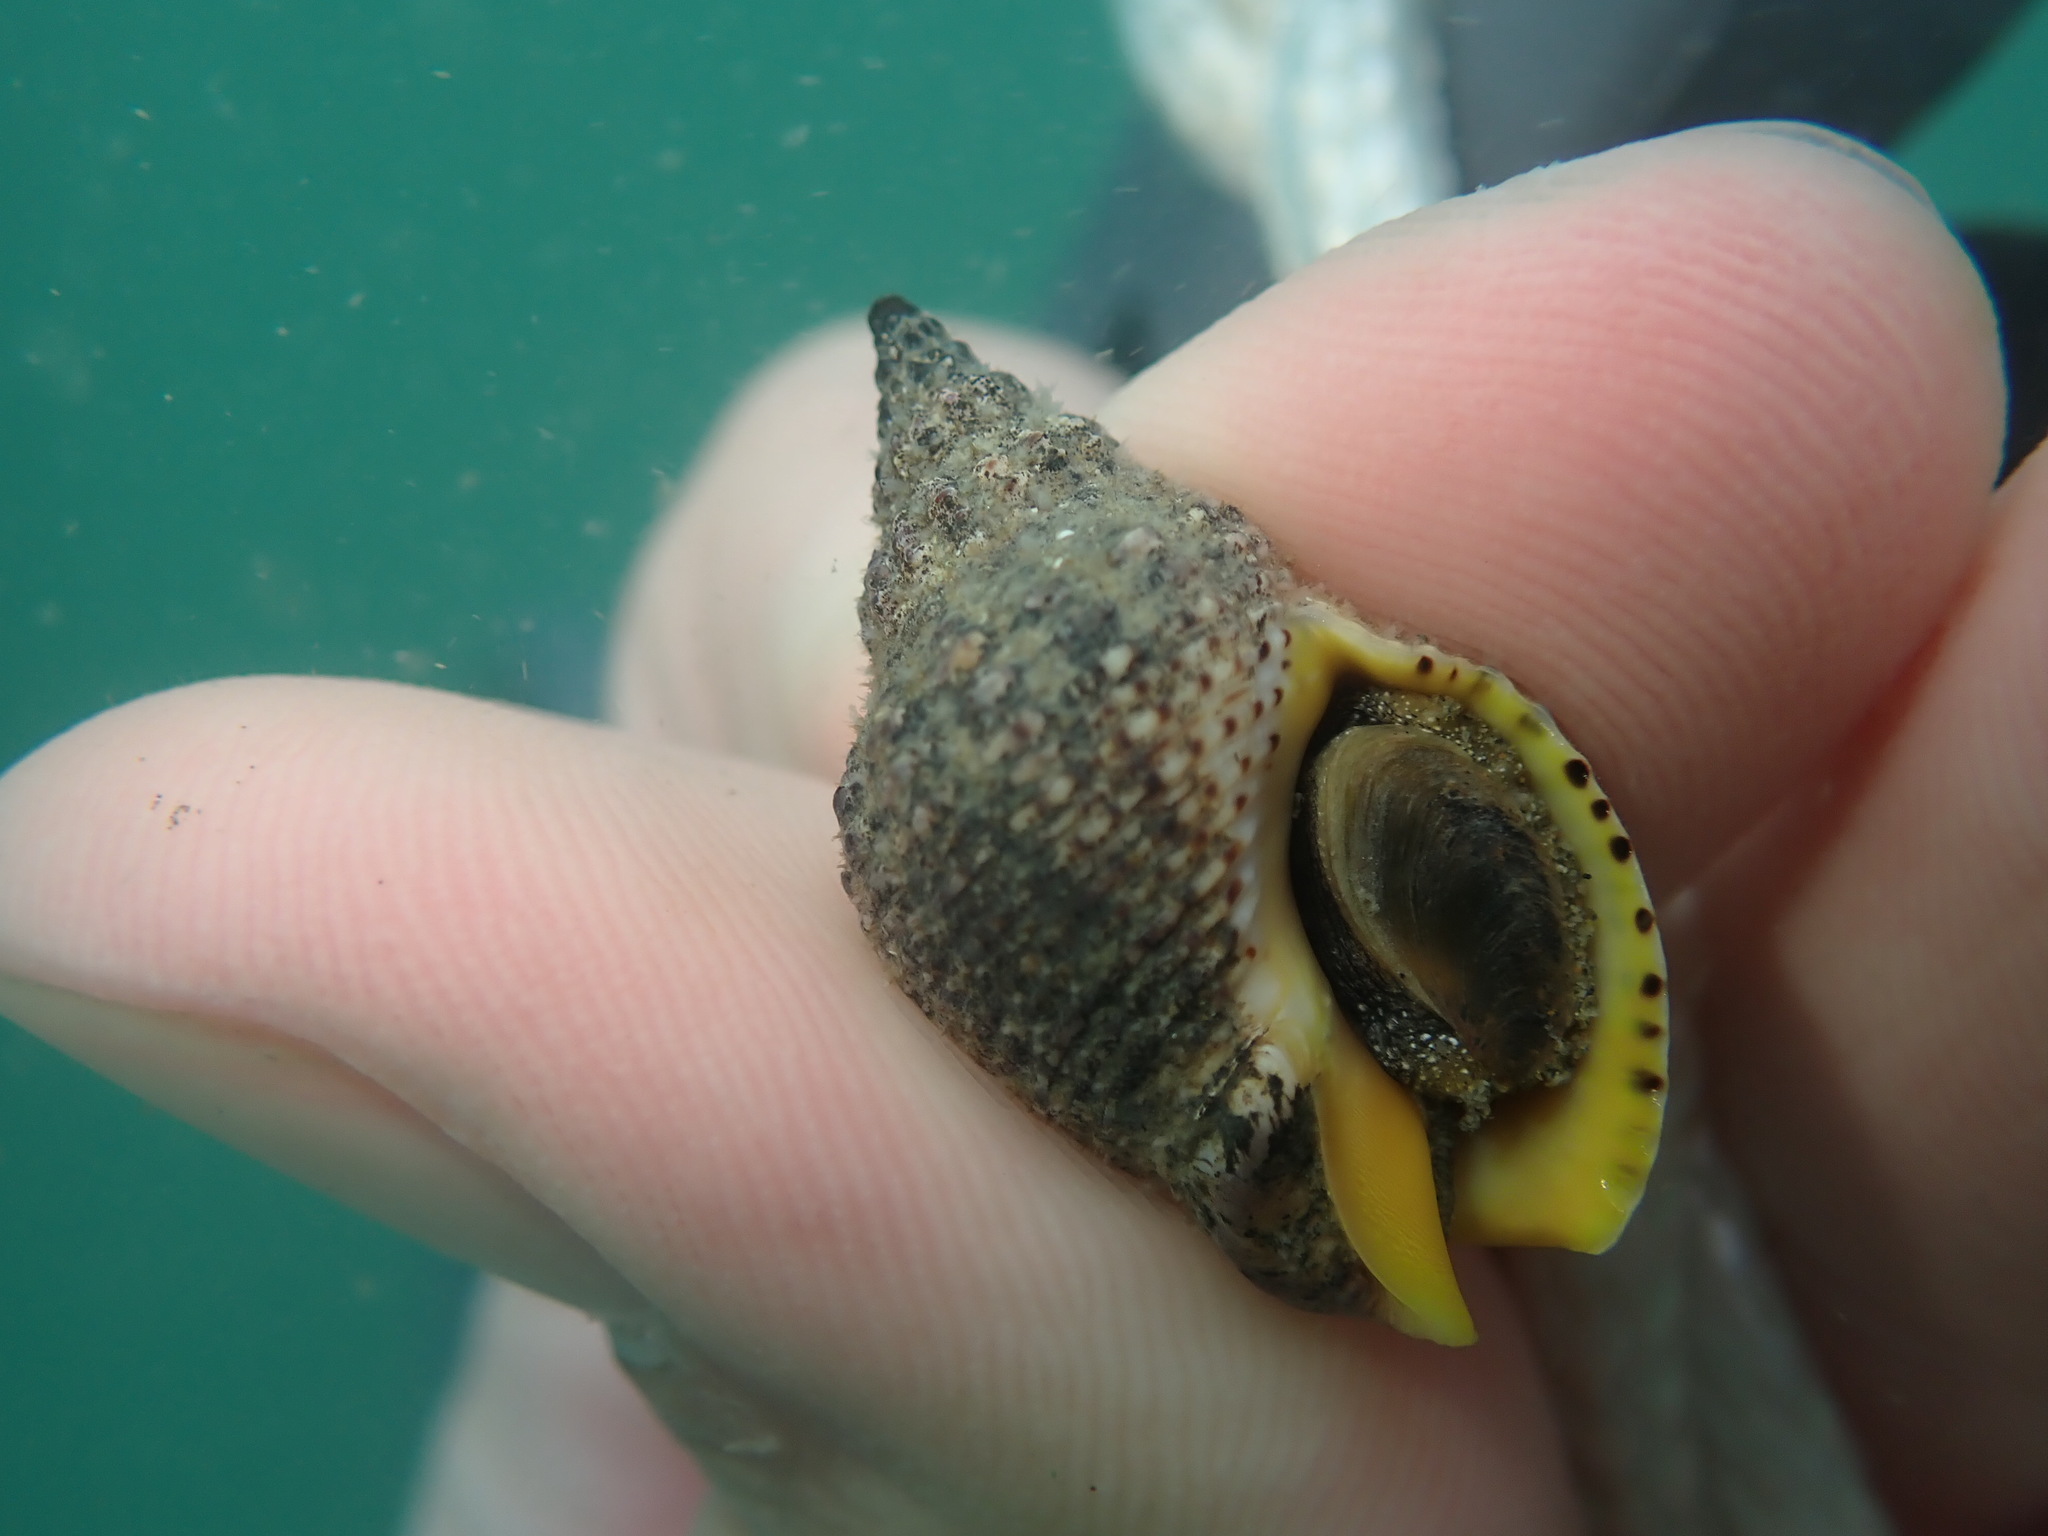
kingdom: Animalia
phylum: Mollusca
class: Gastropoda
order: Neogastropoda
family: Cominellidae
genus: Cominella
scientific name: Cominella adspersa
